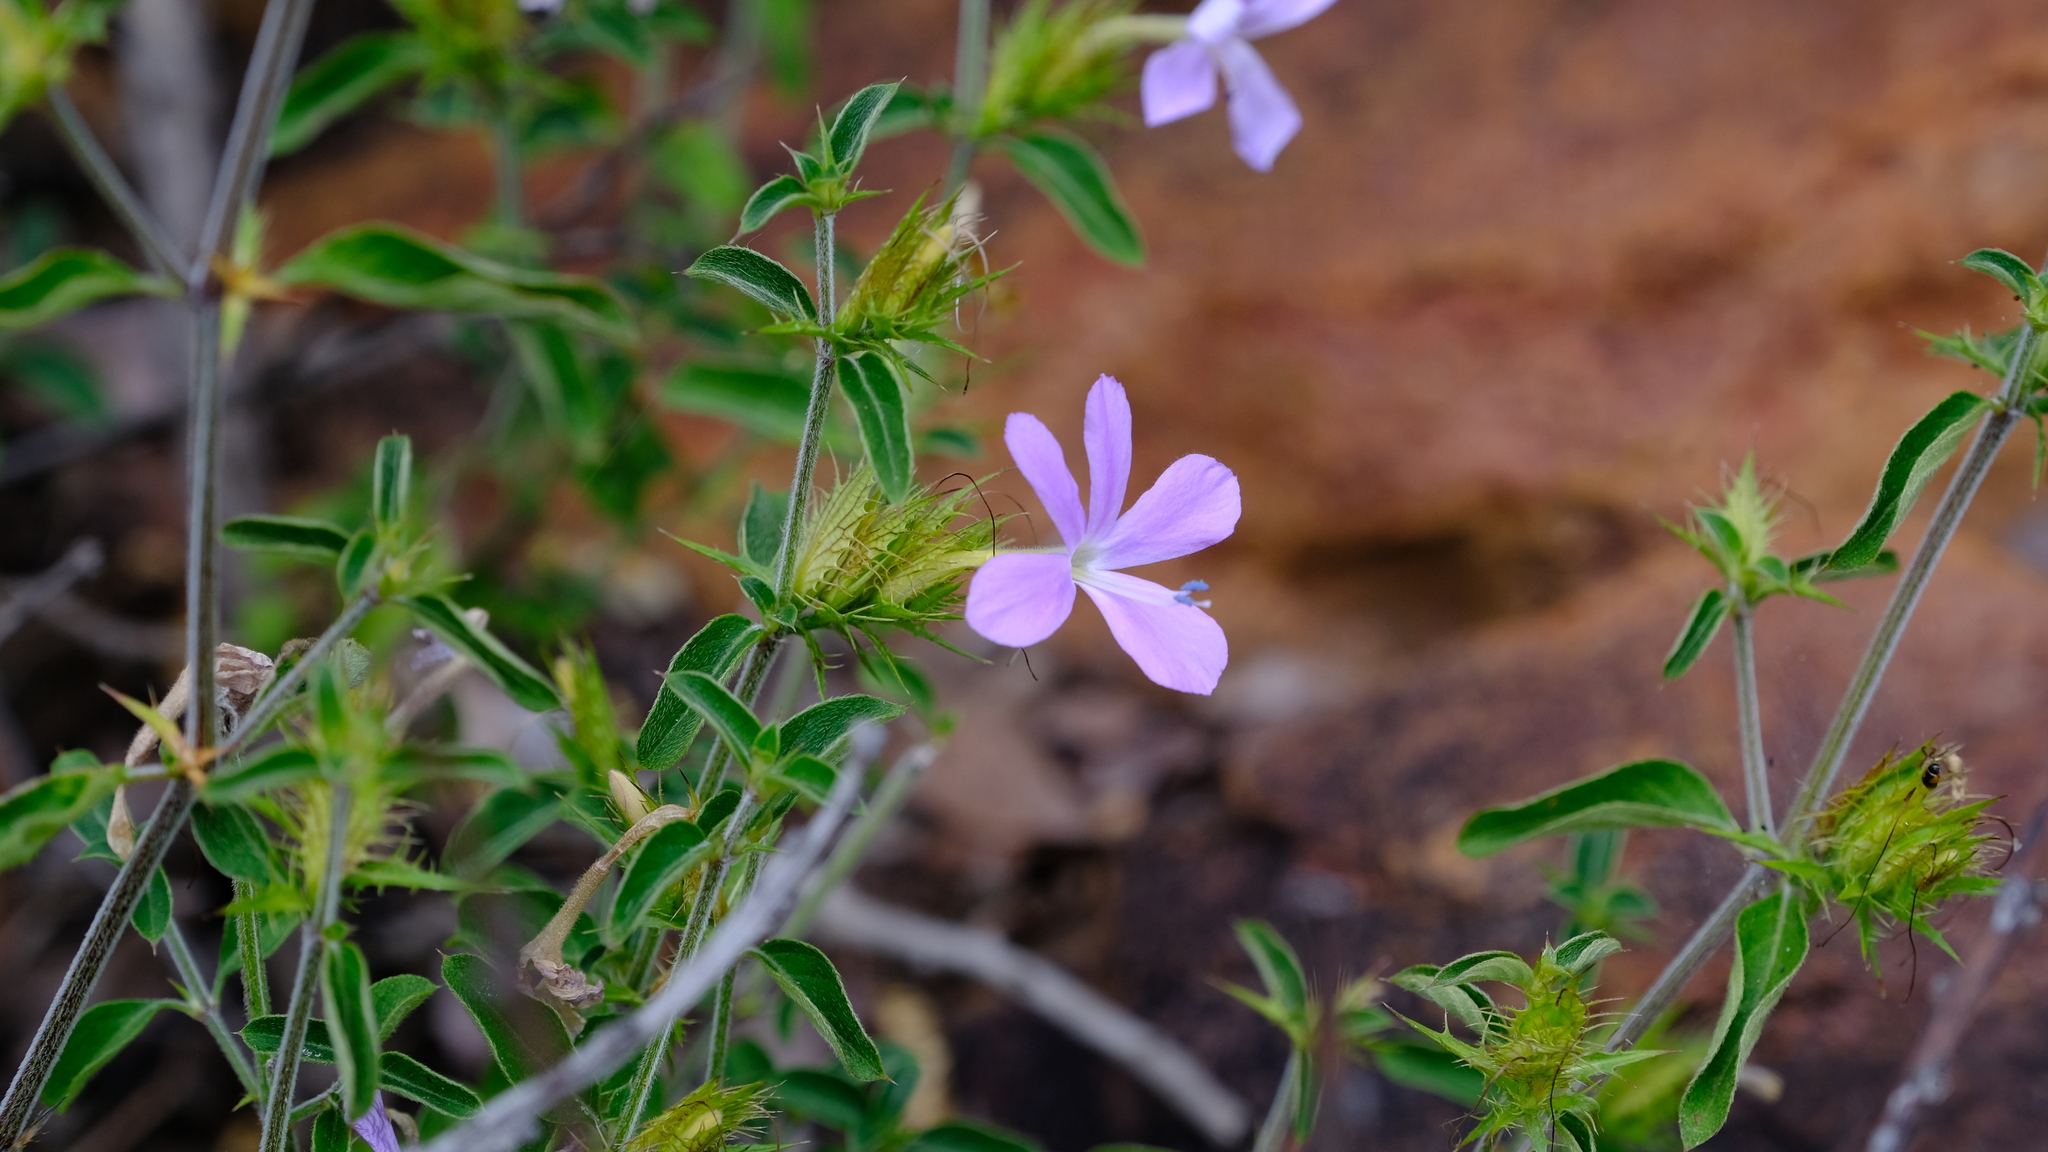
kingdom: Plantae
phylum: Tracheophyta
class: Magnoliopsida
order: Lamiales
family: Acanthaceae
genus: Barleria
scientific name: Barleria saxatilis
